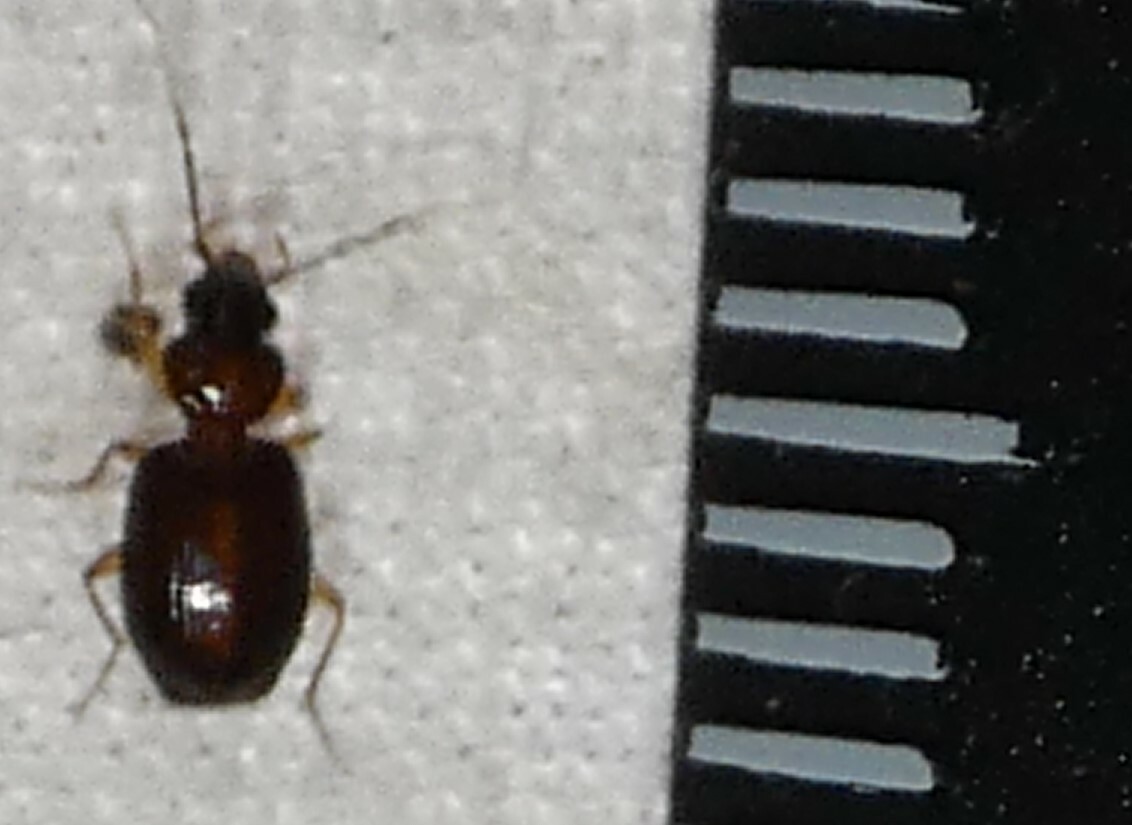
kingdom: Animalia
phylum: Arthropoda
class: Insecta
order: Coleoptera
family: Carabidae
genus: Eucaerus
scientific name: Eucaerus varicornis
